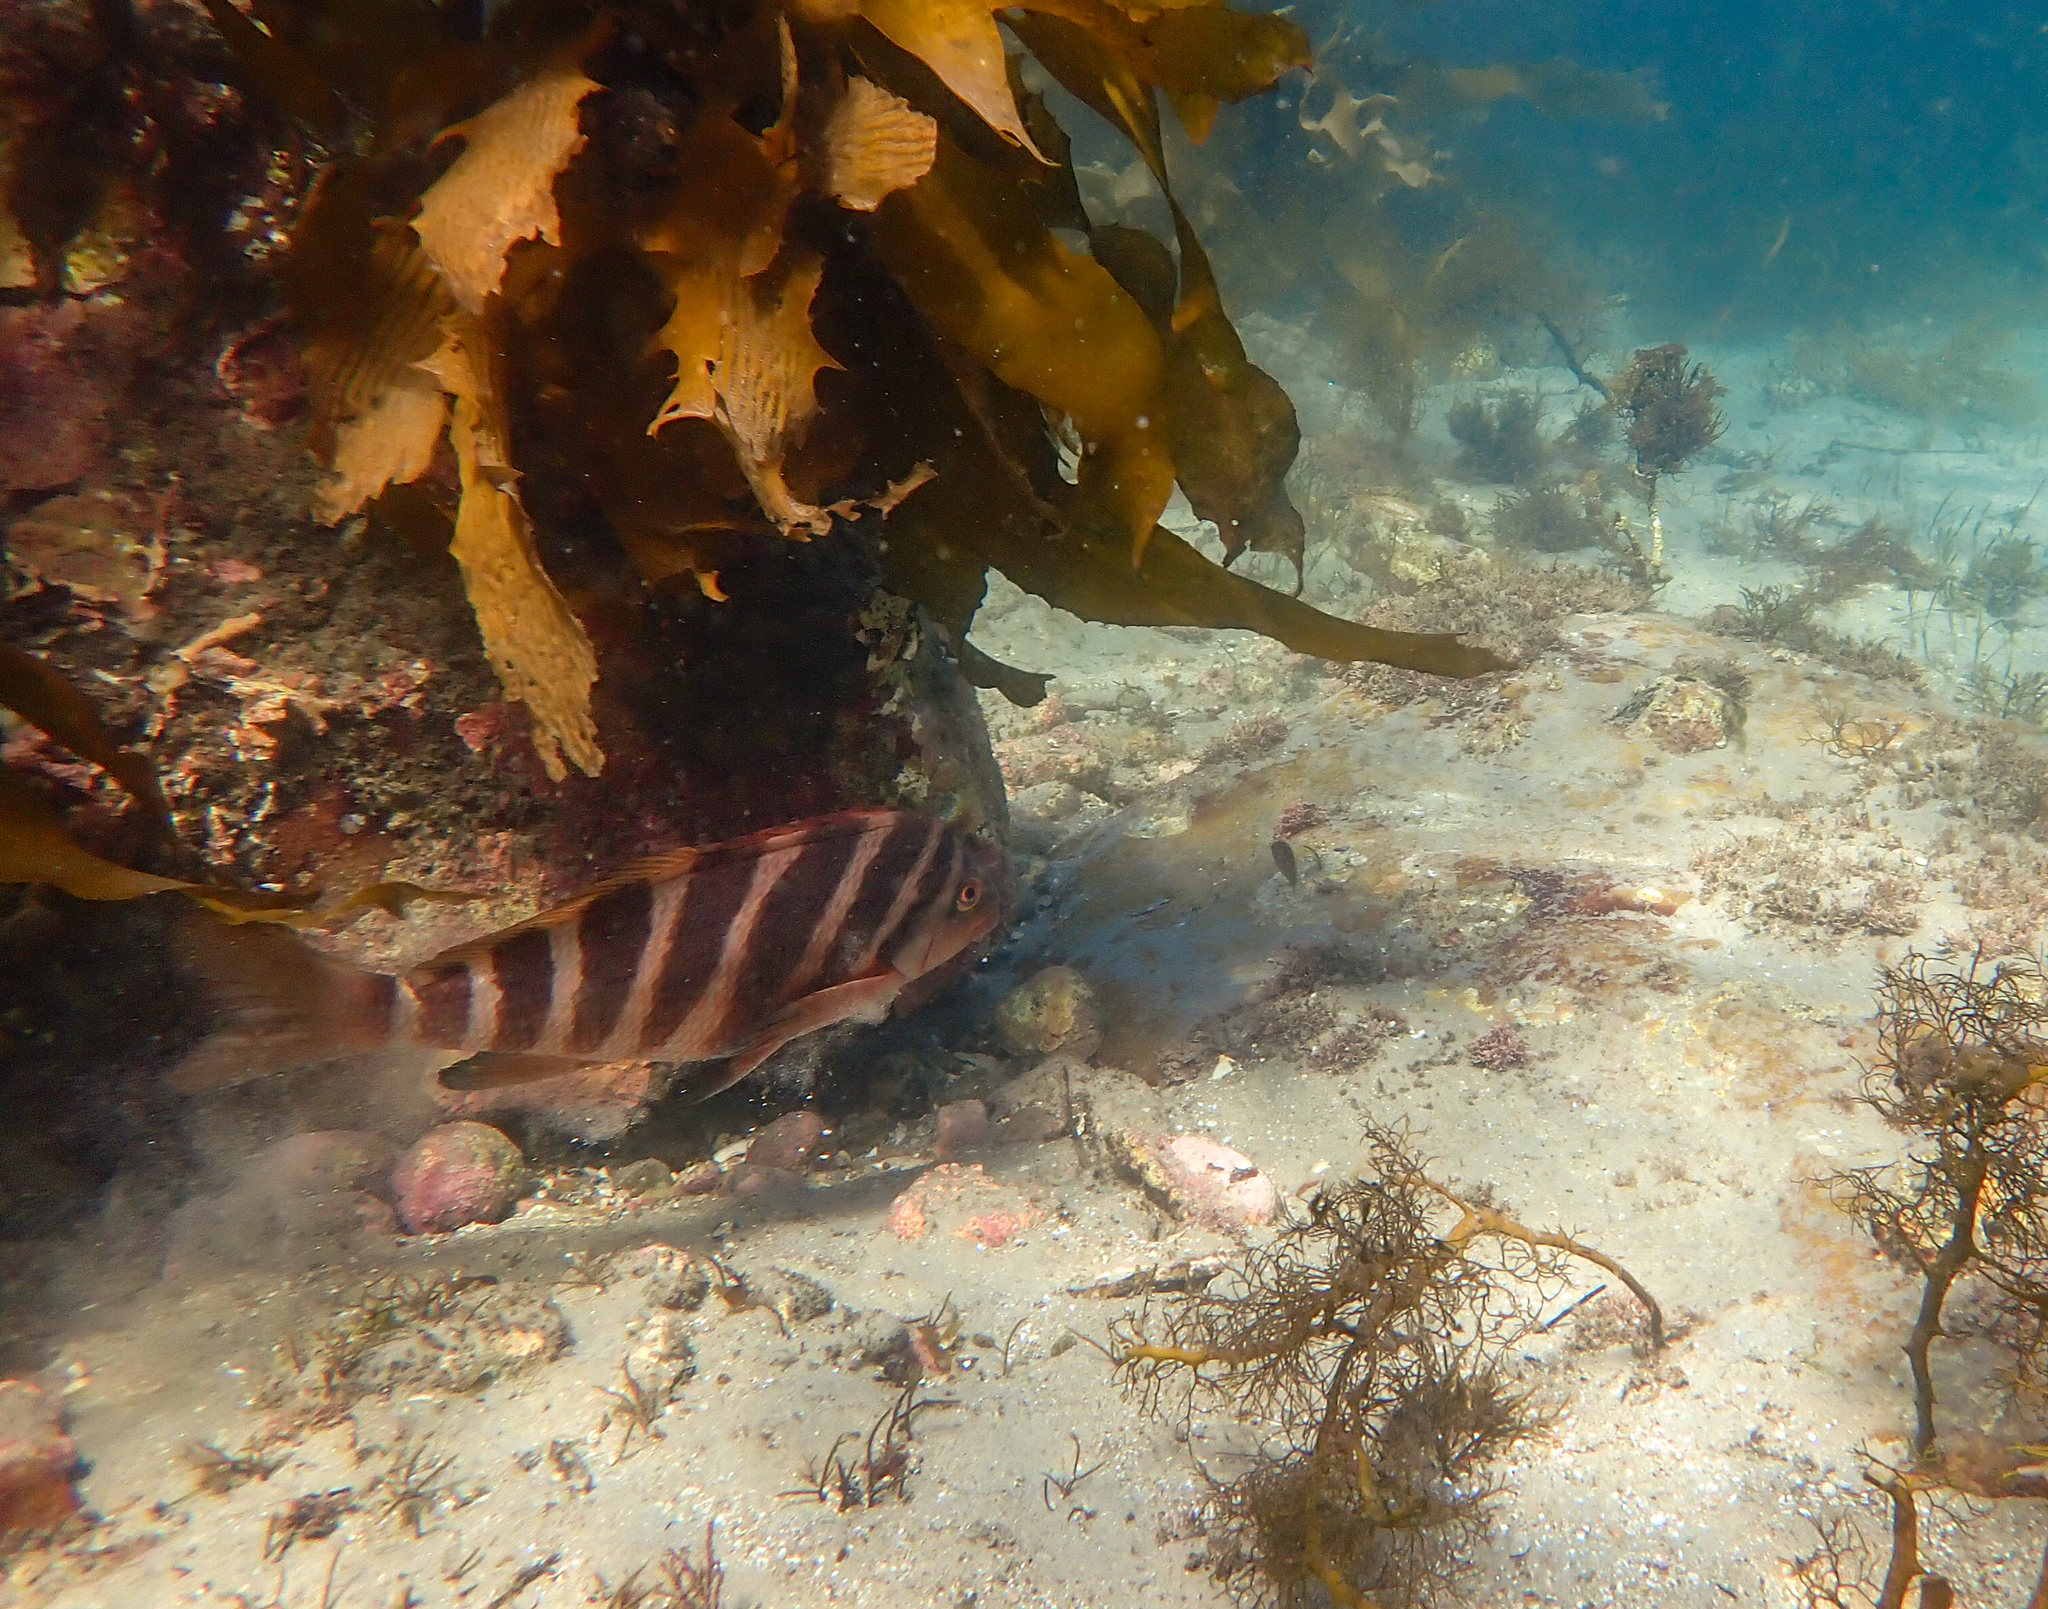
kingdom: Animalia
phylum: Chordata
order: Perciformes
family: Cheilodactylidae
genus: Cheilodactylus
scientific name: Cheilodactylus spectabilis
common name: Red moki
